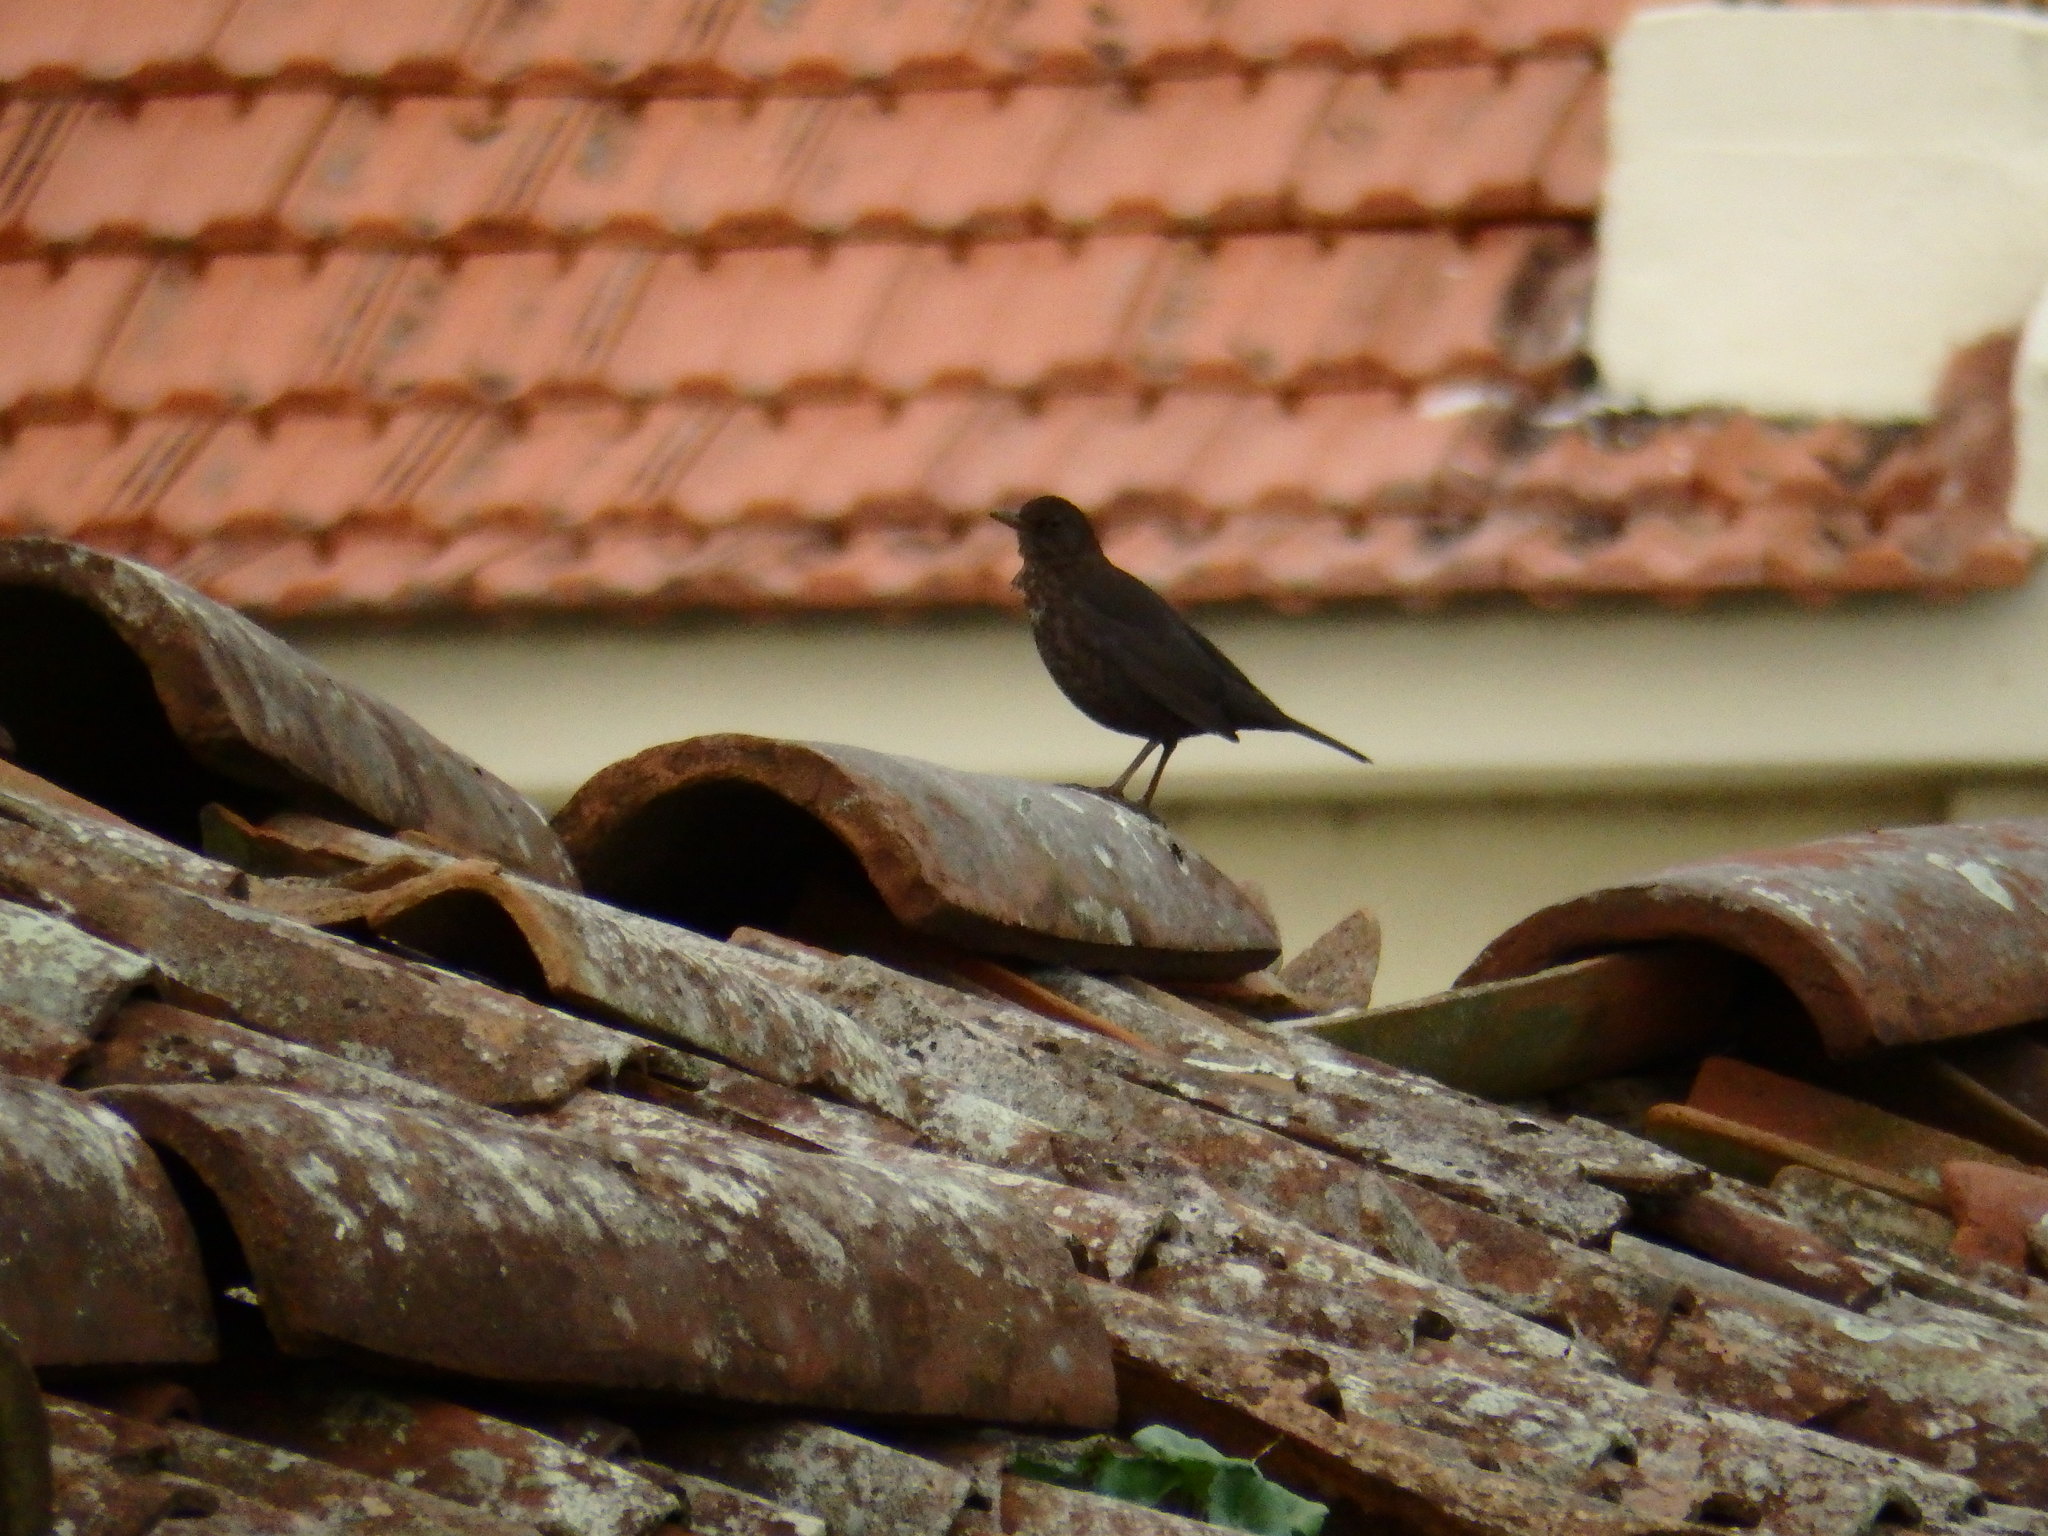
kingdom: Animalia
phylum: Chordata
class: Aves
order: Passeriformes
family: Turdidae
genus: Turdus
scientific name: Turdus merula
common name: Common blackbird
